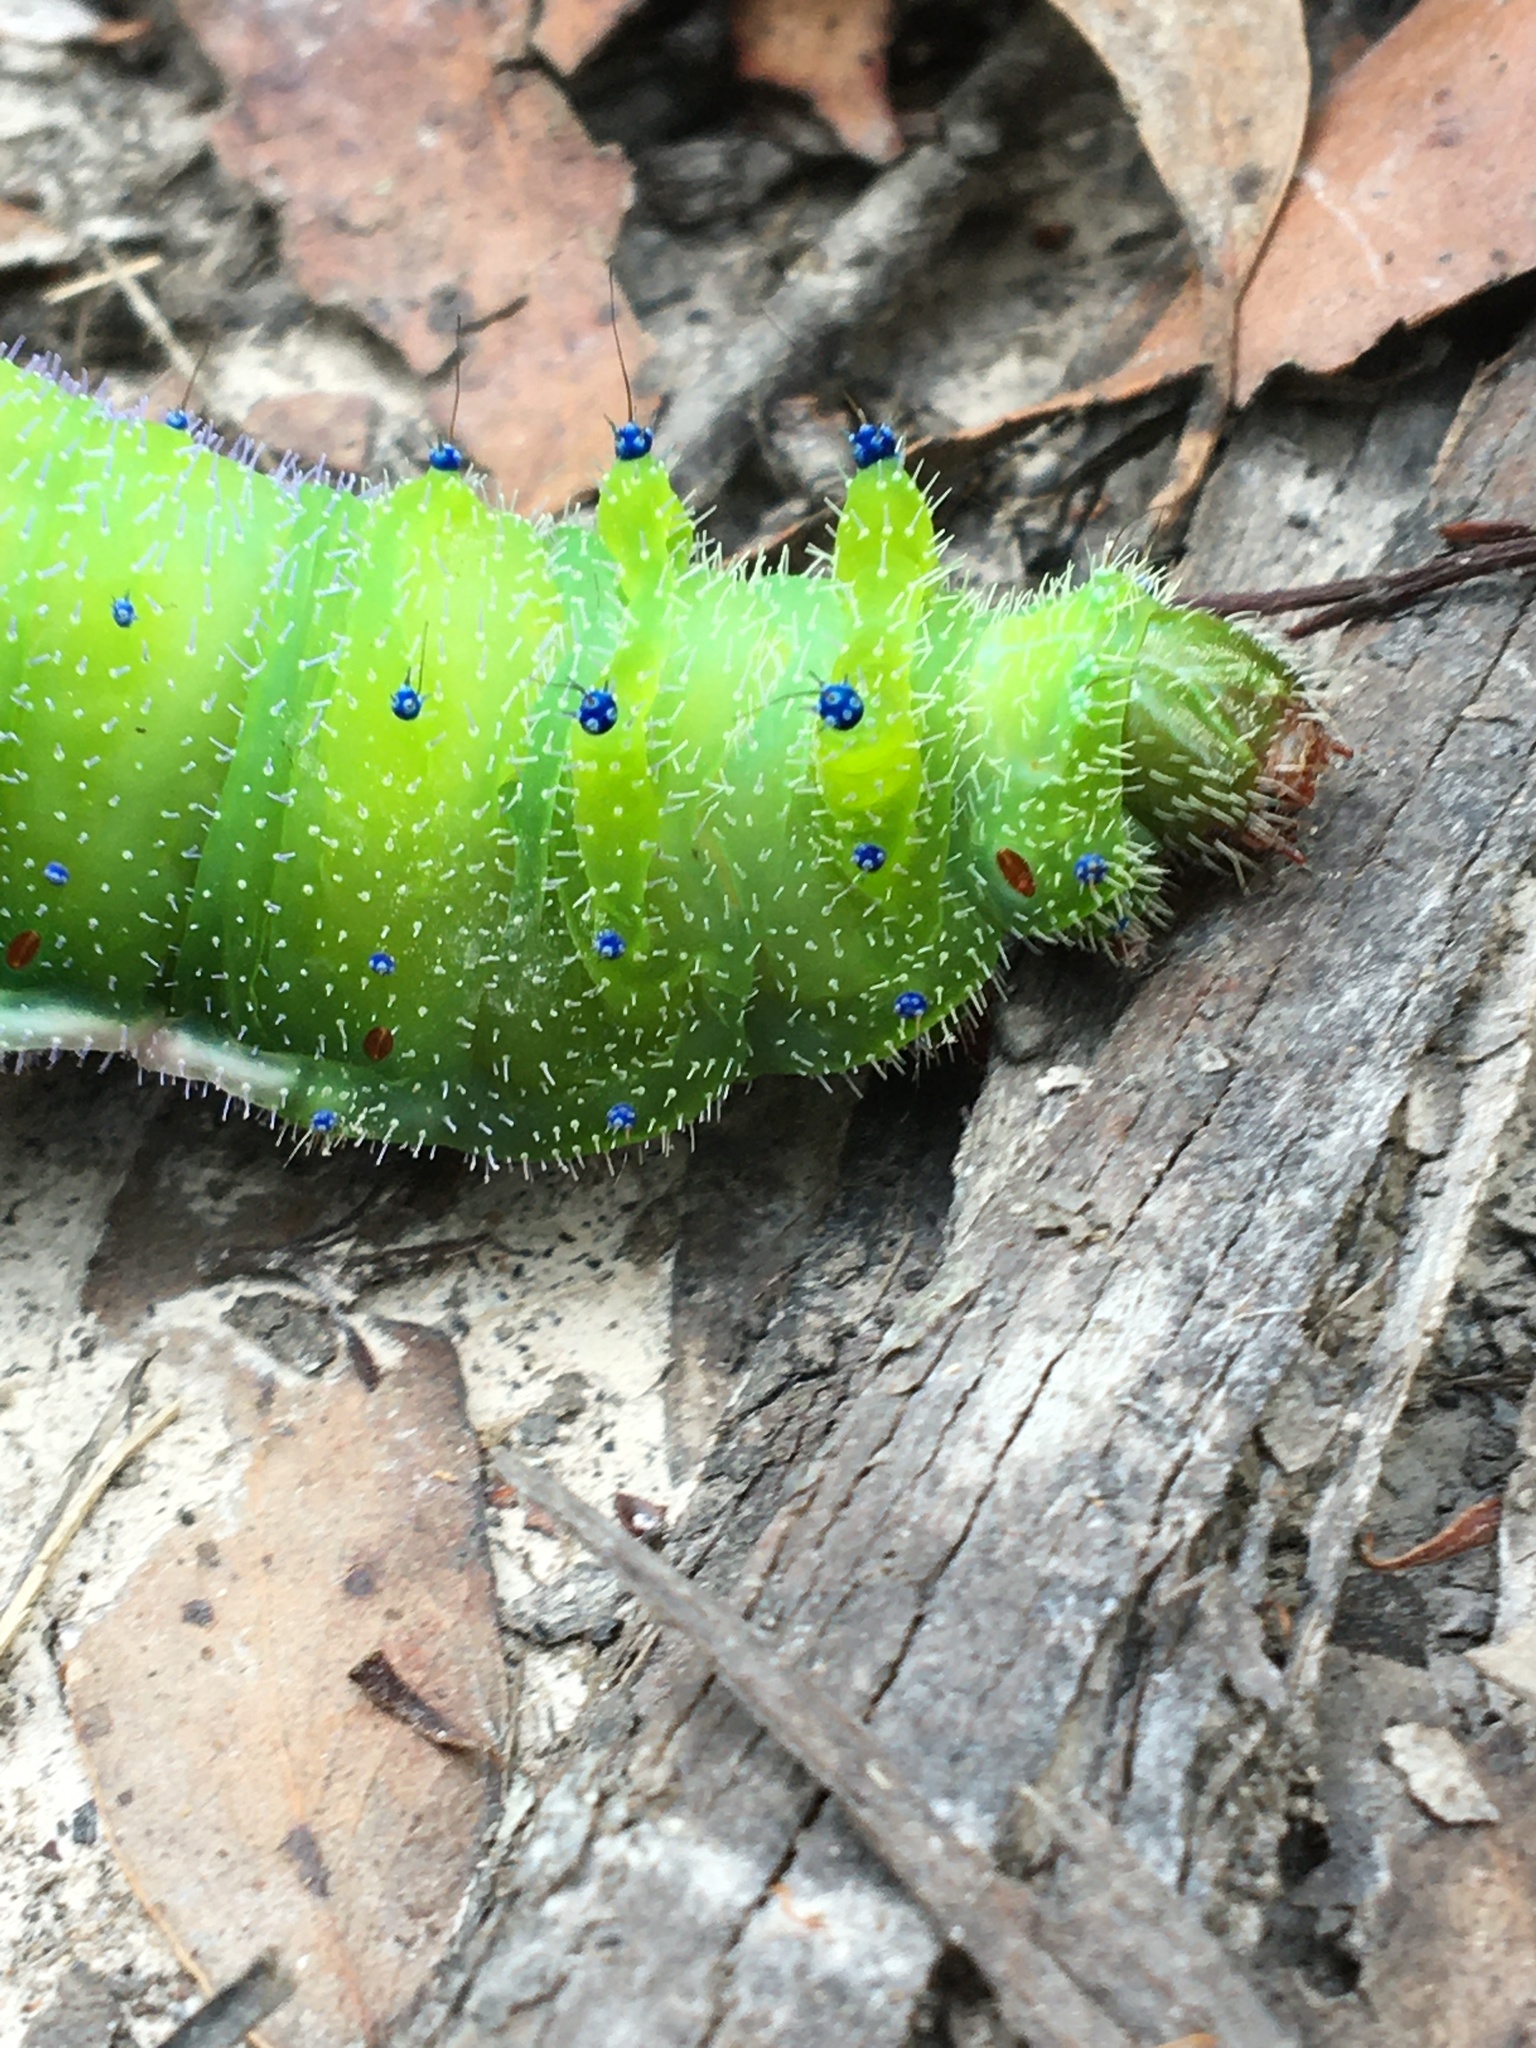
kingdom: Animalia
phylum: Arthropoda
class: Insecta
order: Lepidoptera
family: Saturniidae
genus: Opodiphthera
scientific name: Opodiphthera
